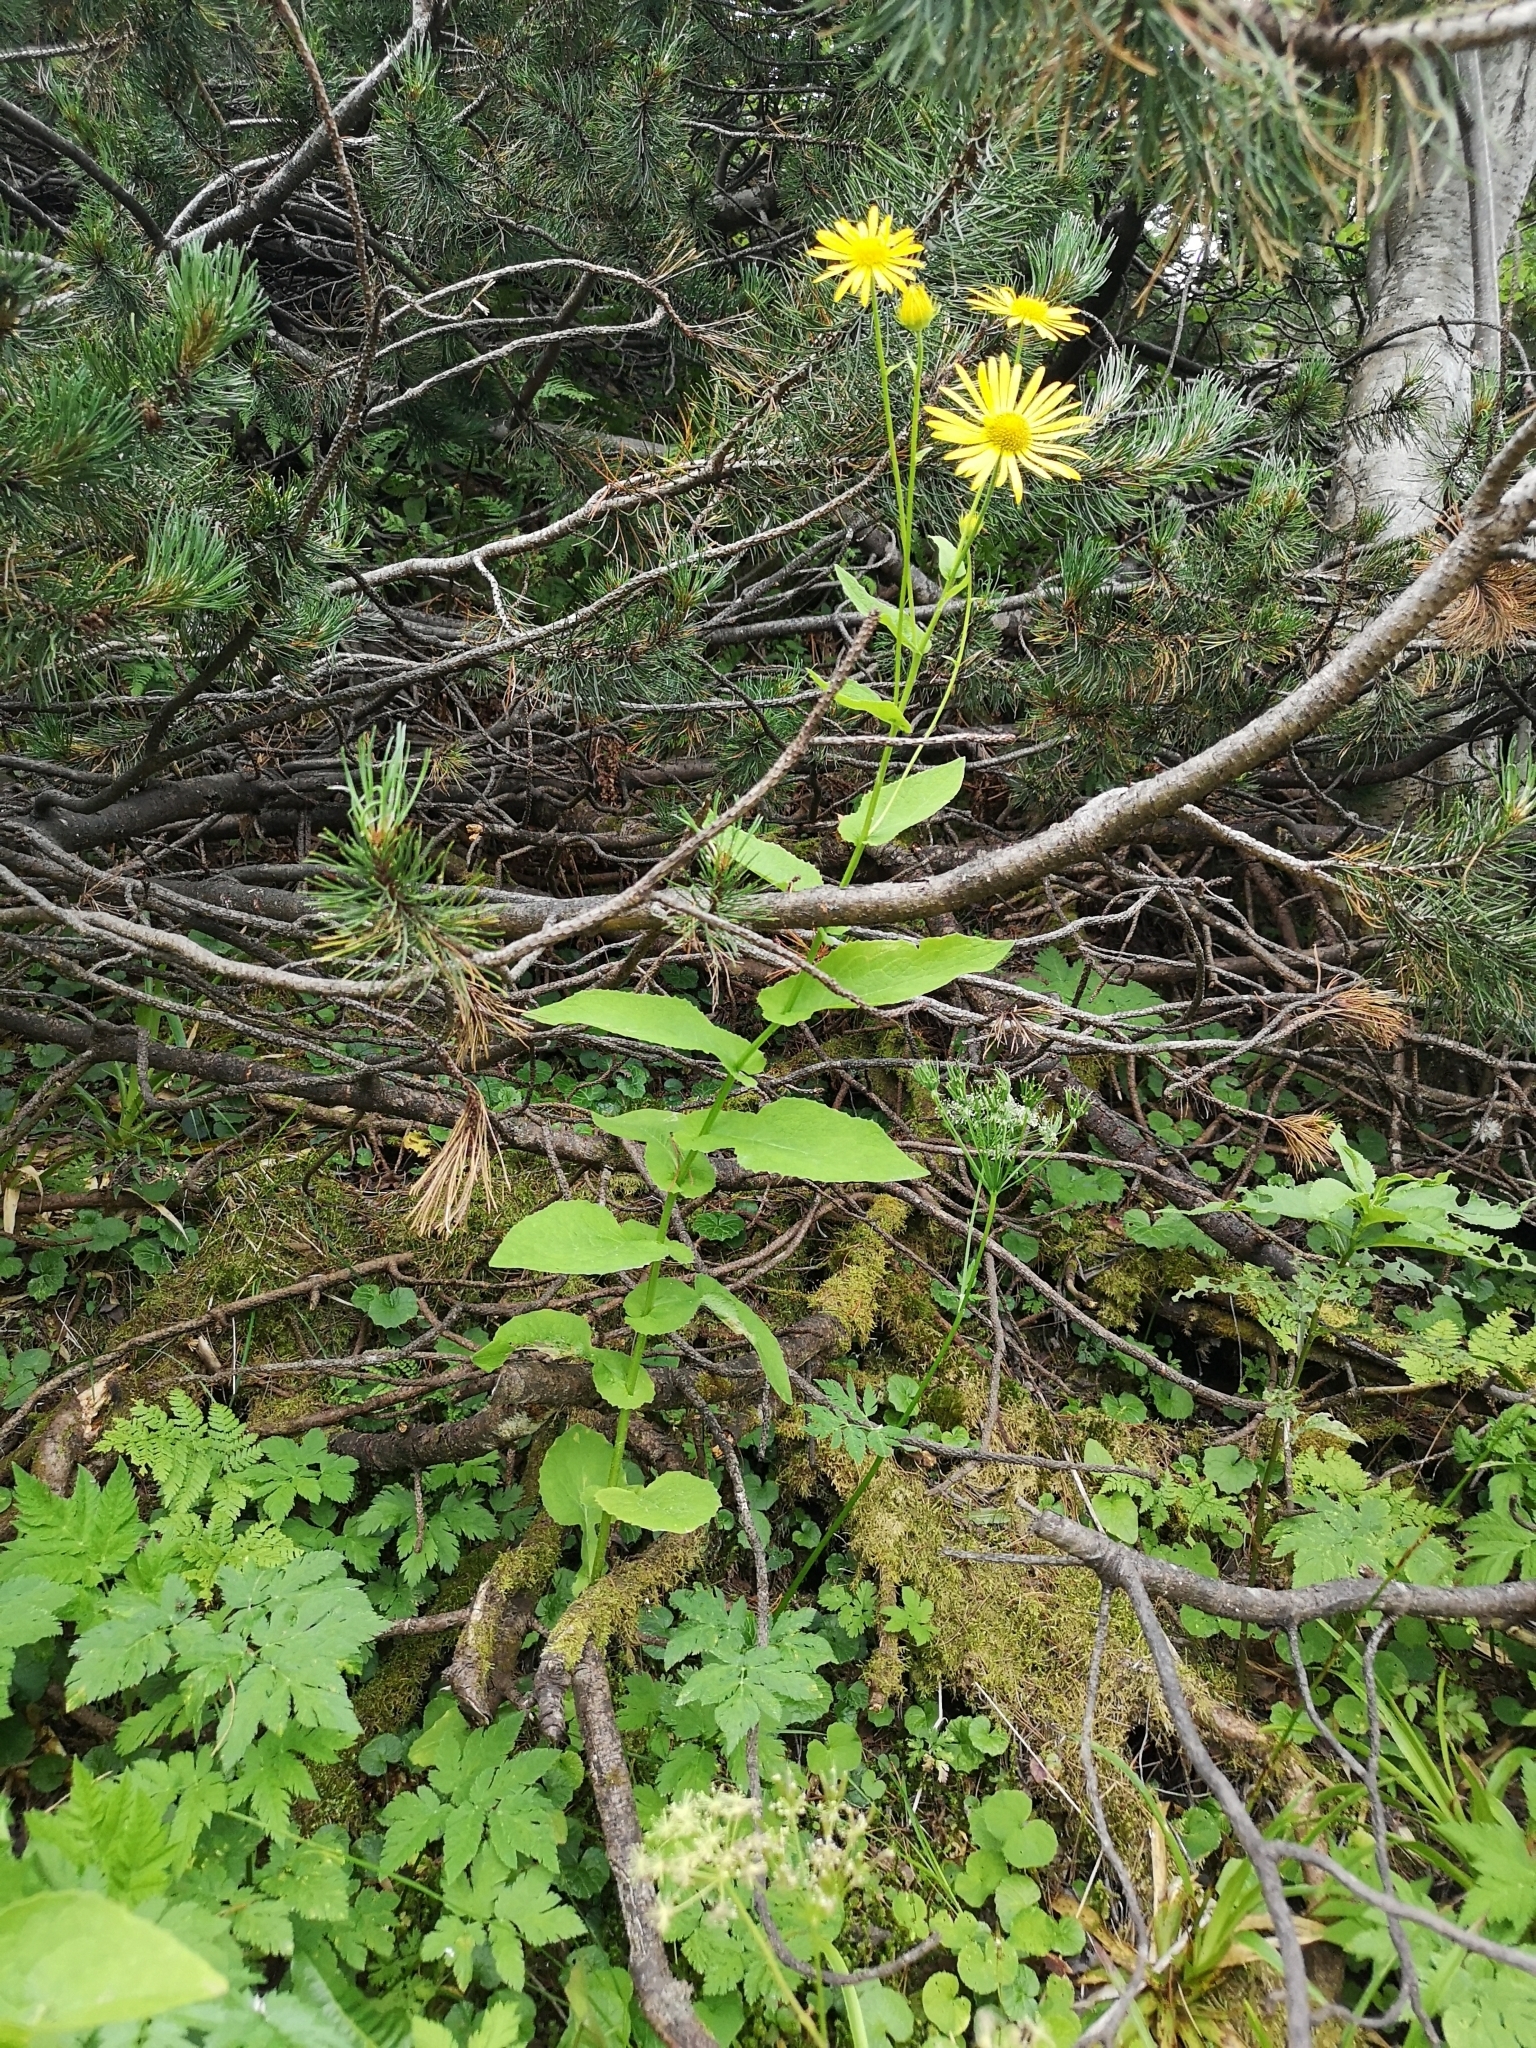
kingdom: Plantae
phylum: Tracheophyta
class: Magnoliopsida
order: Asterales
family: Asteraceae
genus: Doronicum
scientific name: Doronicum austriacum
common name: Austrian leopard's-bane
